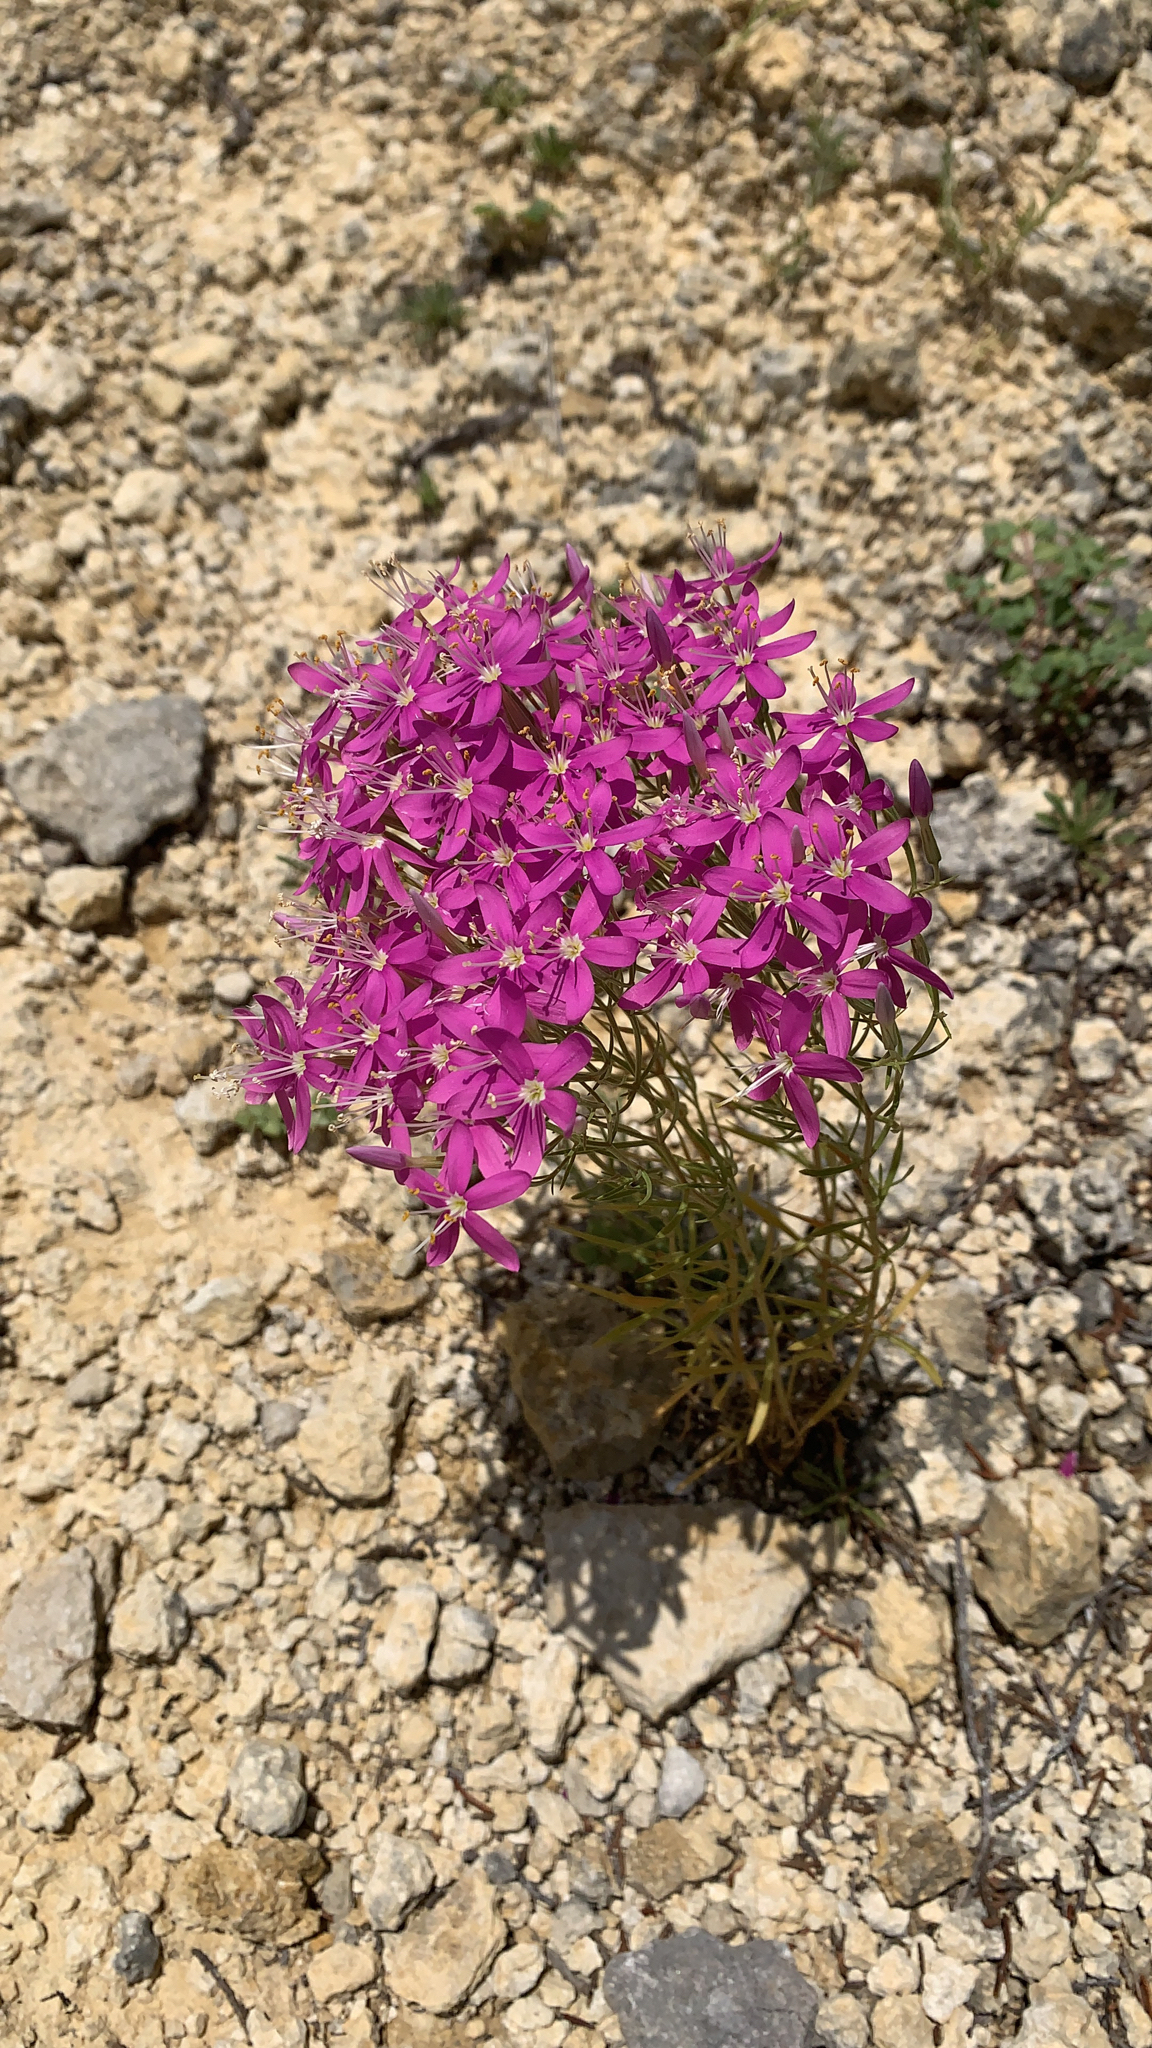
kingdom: Plantae
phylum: Tracheophyta
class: Magnoliopsida
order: Gentianales
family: Gentianaceae
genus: Zeltnera
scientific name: Zeltnera beyrichii
